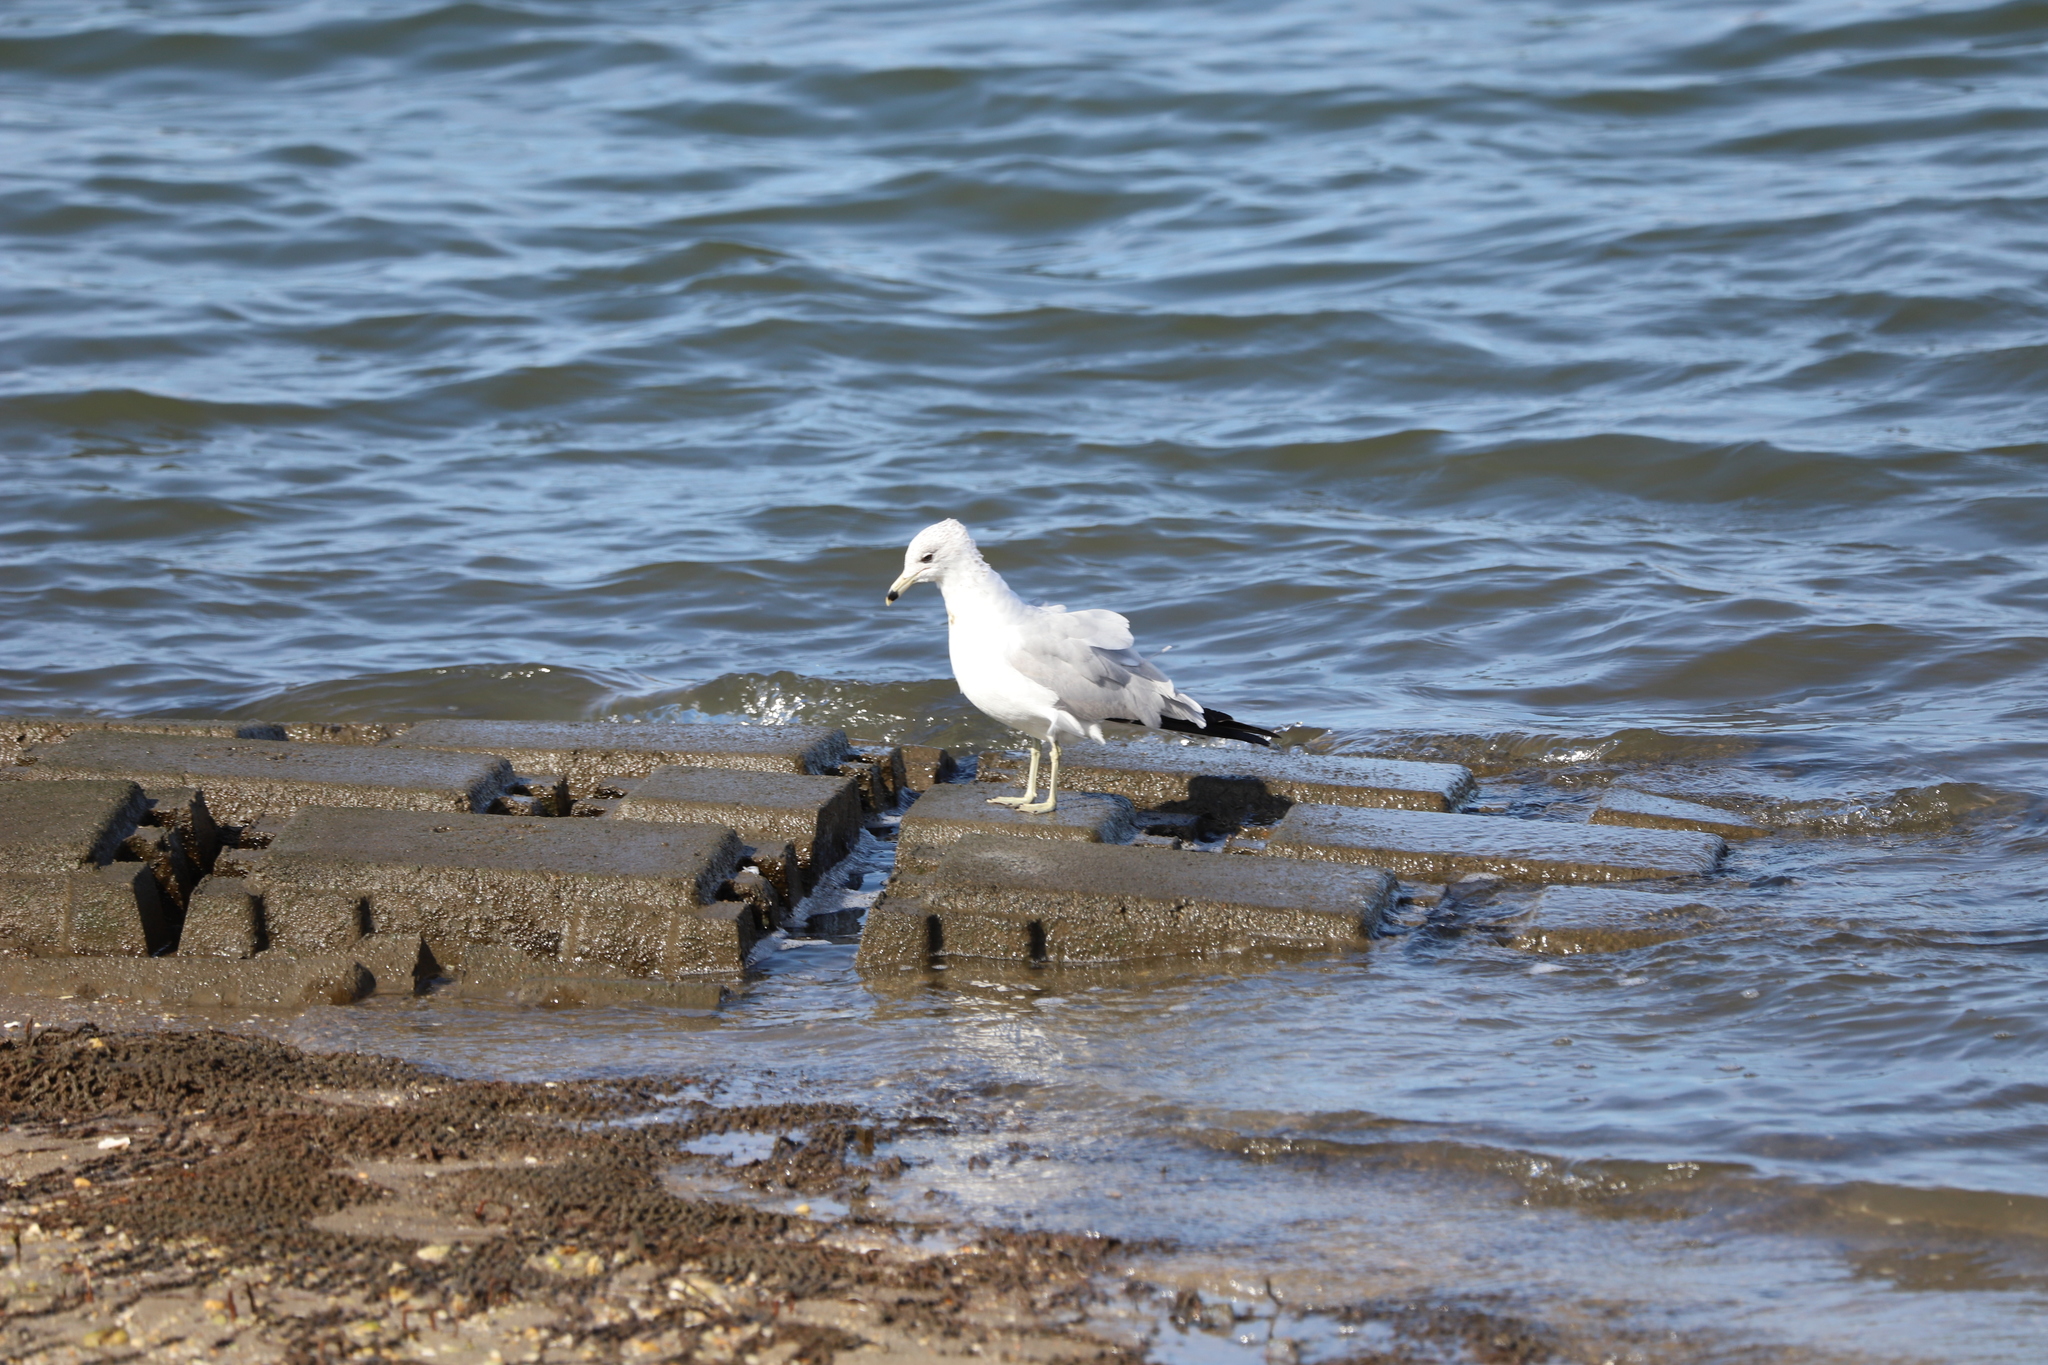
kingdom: Animalia
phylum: Chordata
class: Aves
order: Charadriiformes
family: Laridae
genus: Larus
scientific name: Larus delawarensis
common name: Ring-billed gull
